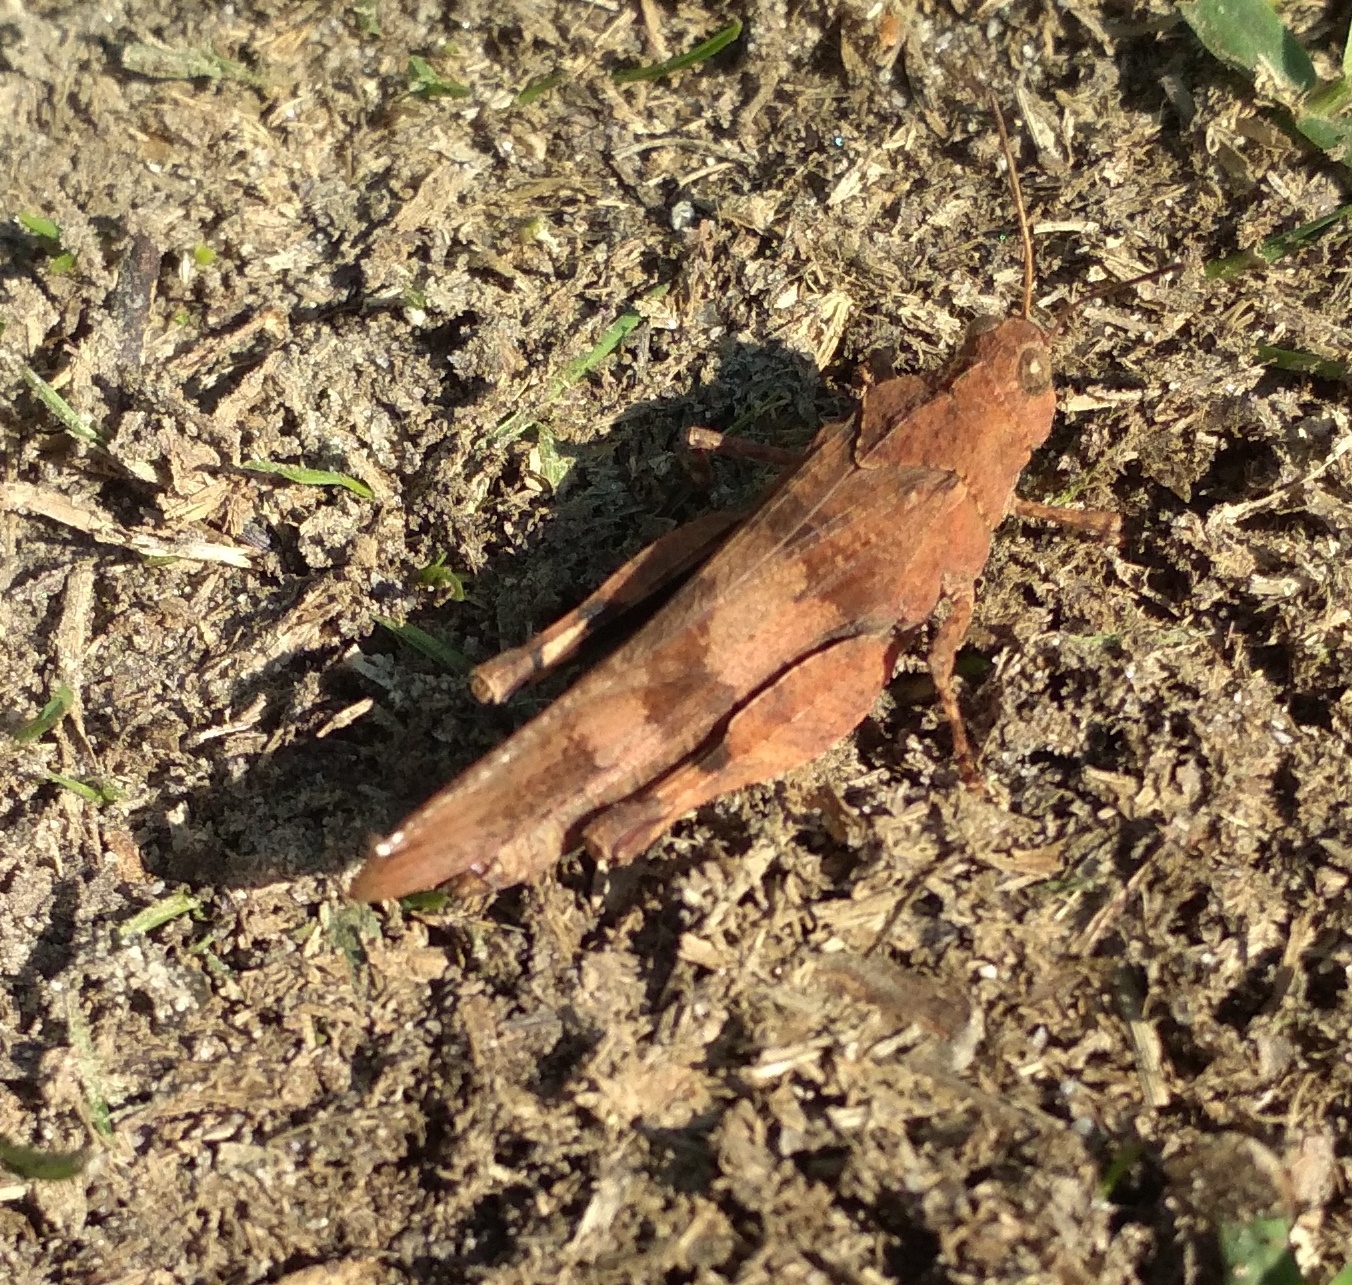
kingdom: Animalia
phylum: Arthropoda
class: Insecta
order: Orthoptera
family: Acrididae
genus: Oedipoda
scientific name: Oedipoda caerulescens
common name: Blue-winged grasshopper
